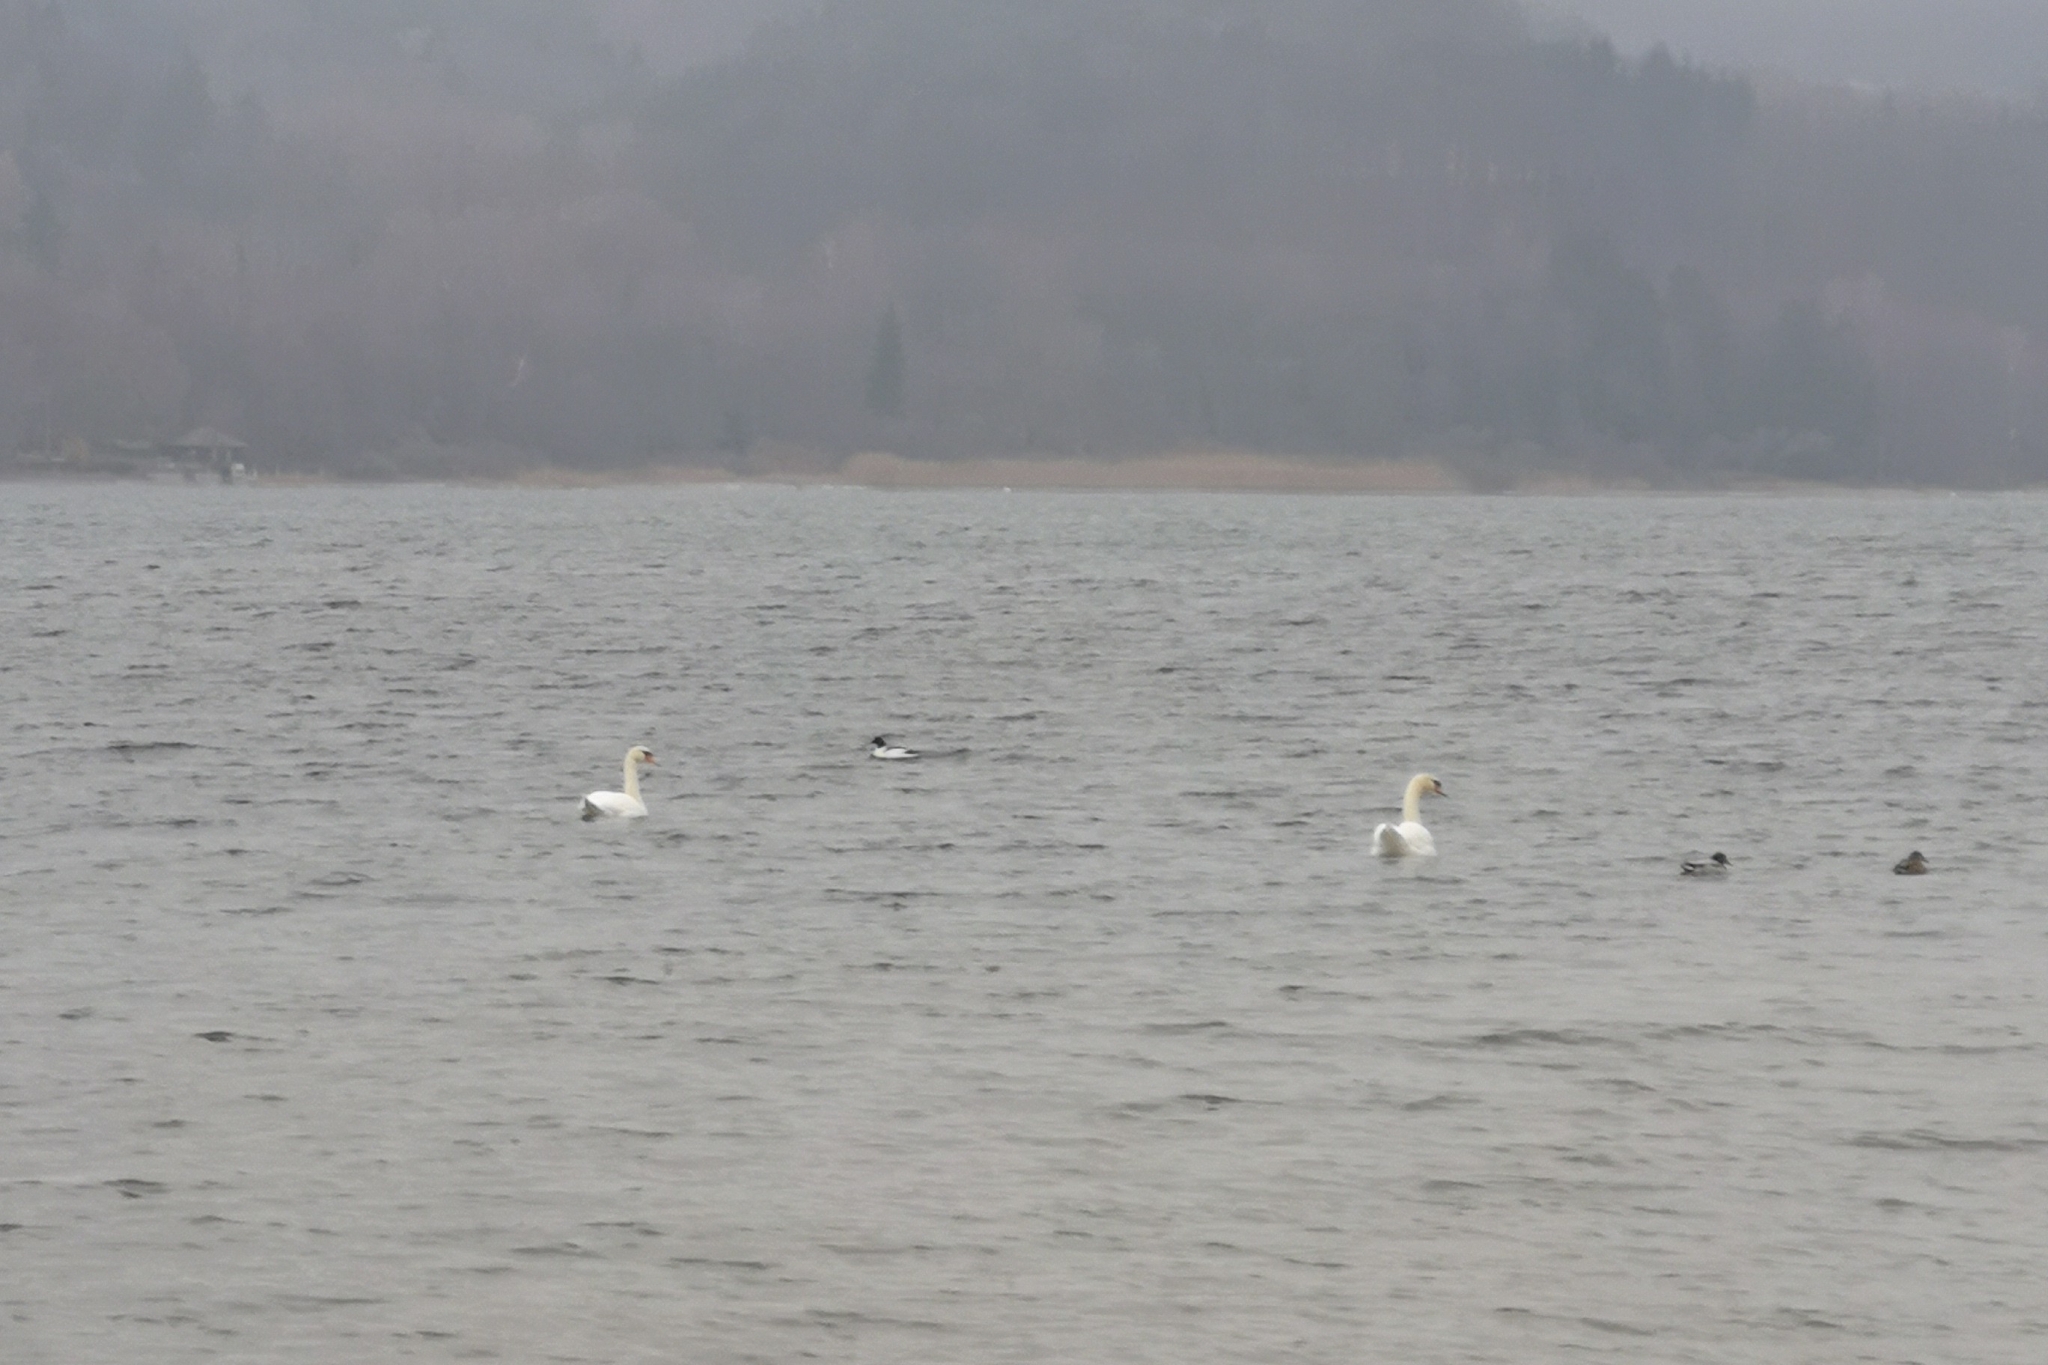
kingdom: Animalia
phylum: Chordata
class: Aves
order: Anseriformes
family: Anatidae
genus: Cygnus
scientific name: Cygnus olor
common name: Mute swan
